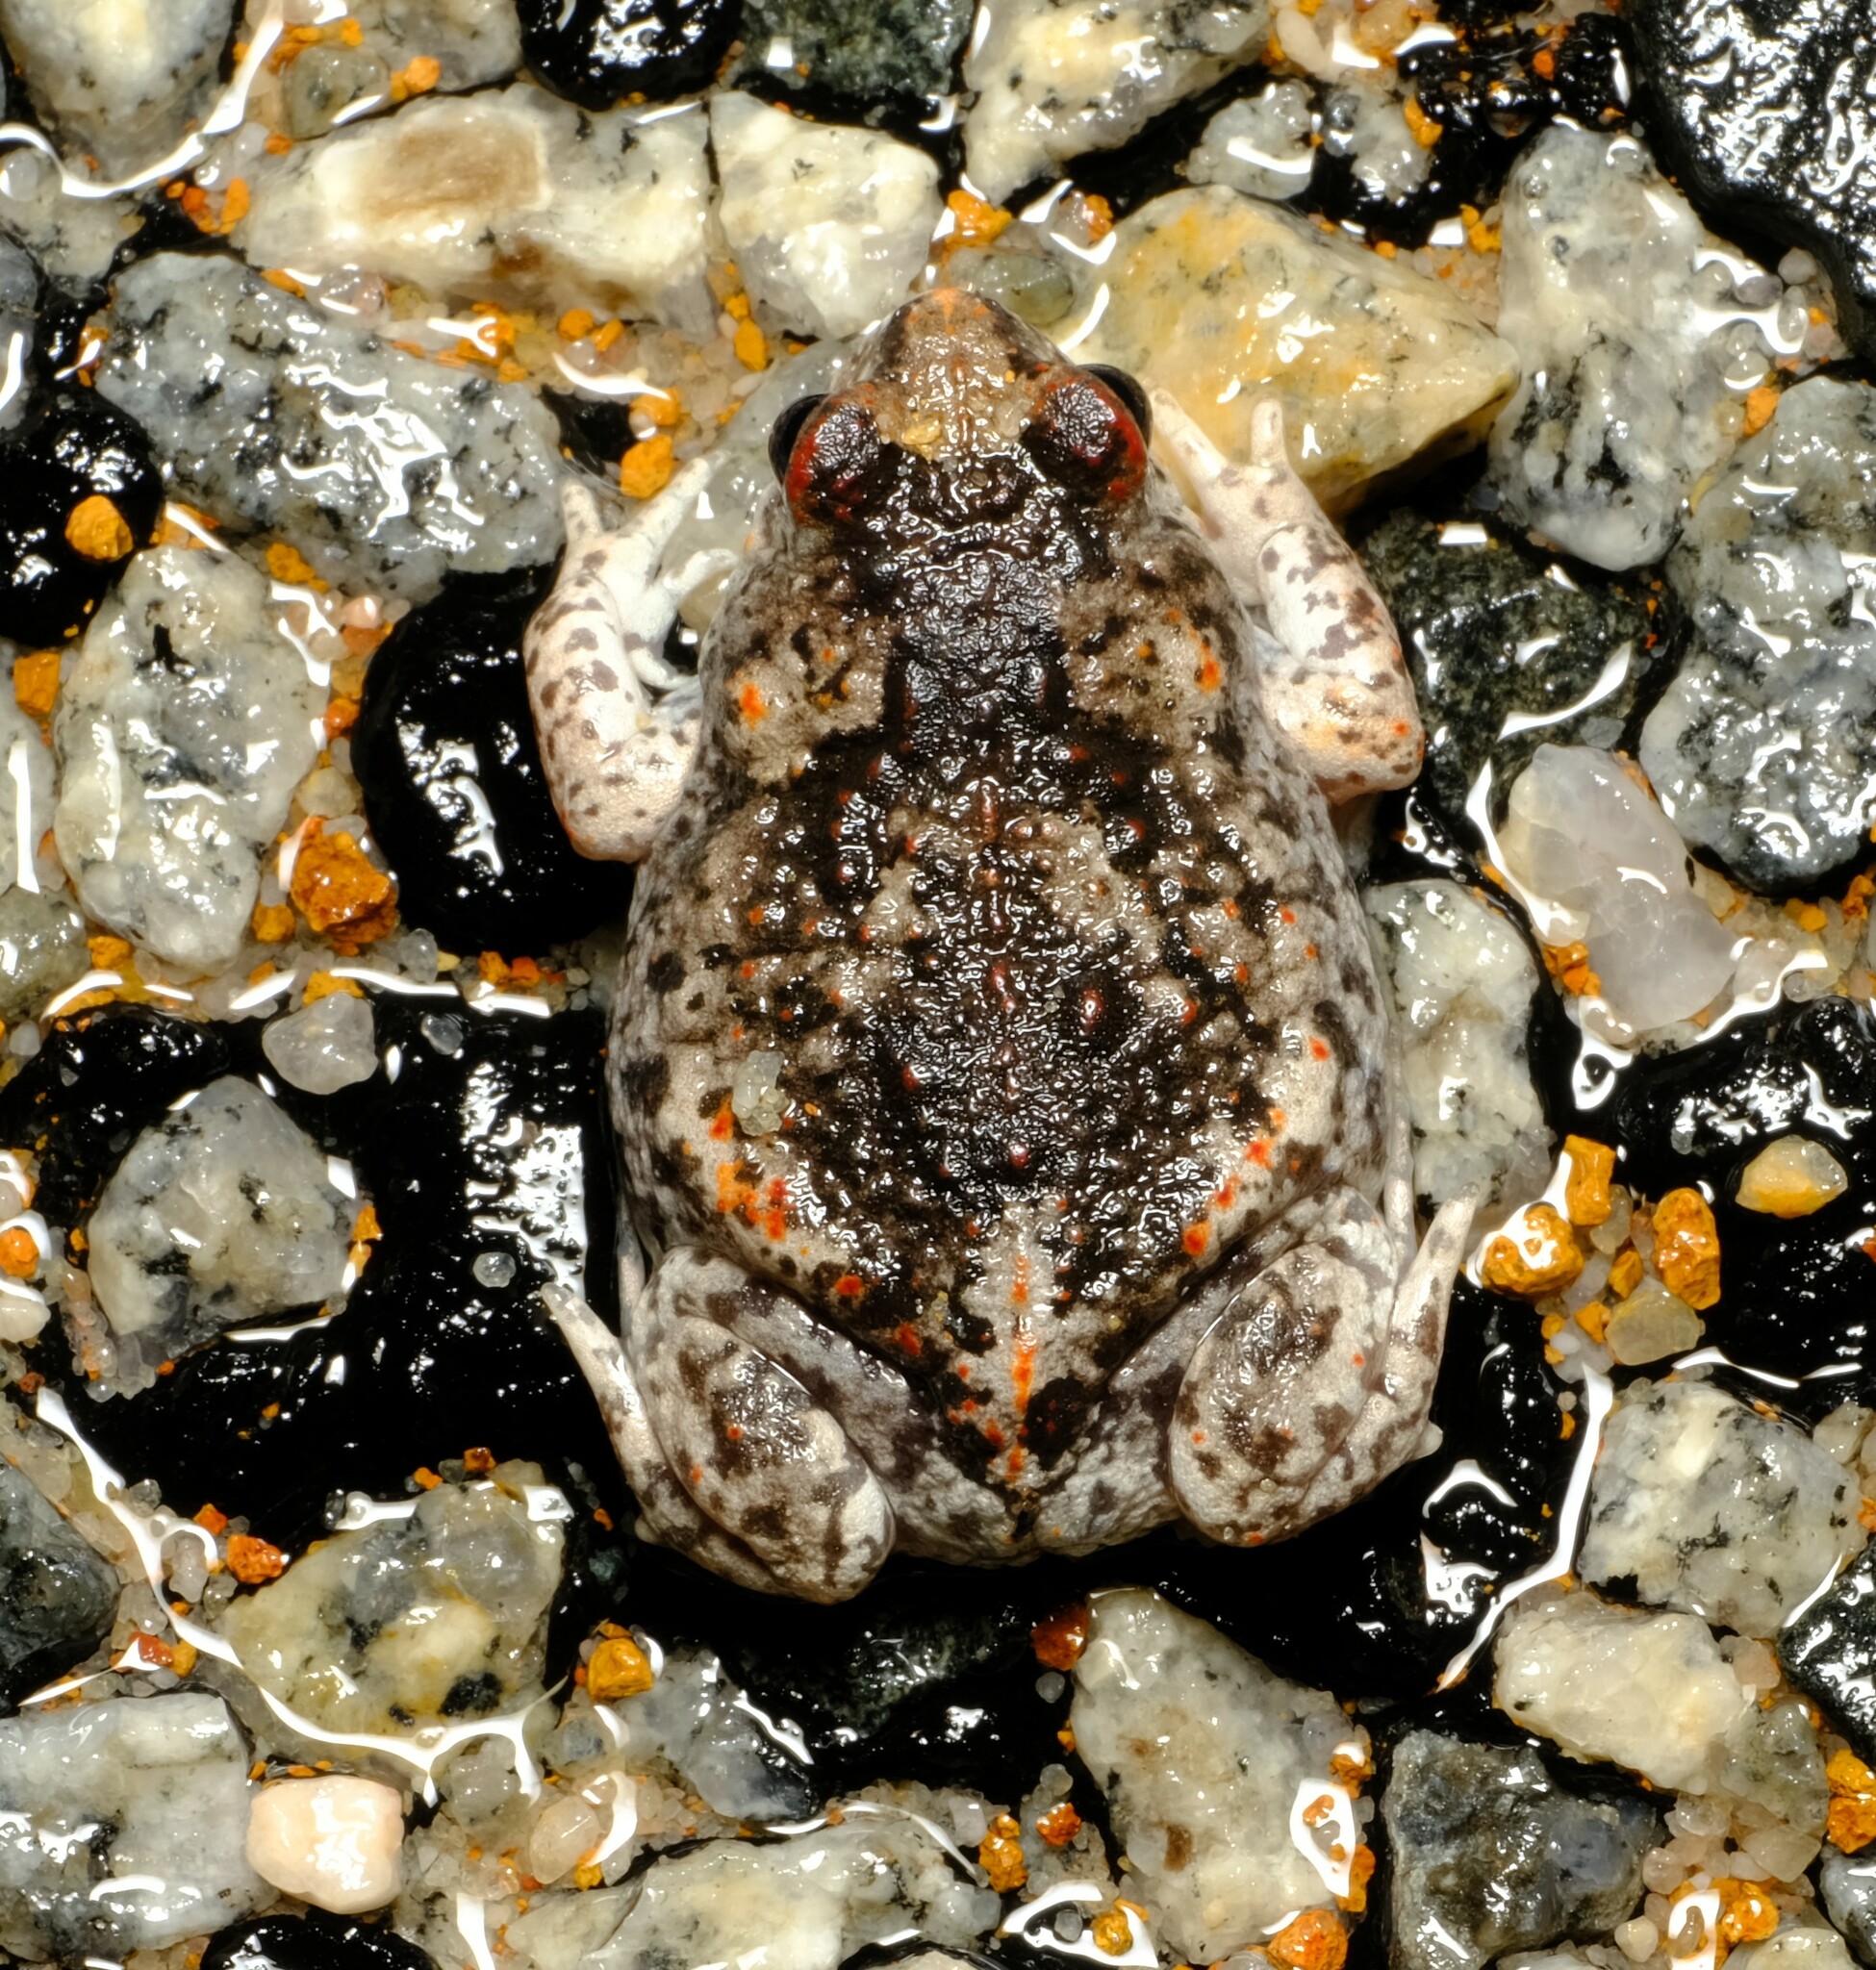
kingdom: Animalia
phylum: Chordata
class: Amphibia
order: Anura
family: Myobatrachidae
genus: Pseudophryne
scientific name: Pseudophryne guentheri
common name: Günther’s toadlet
